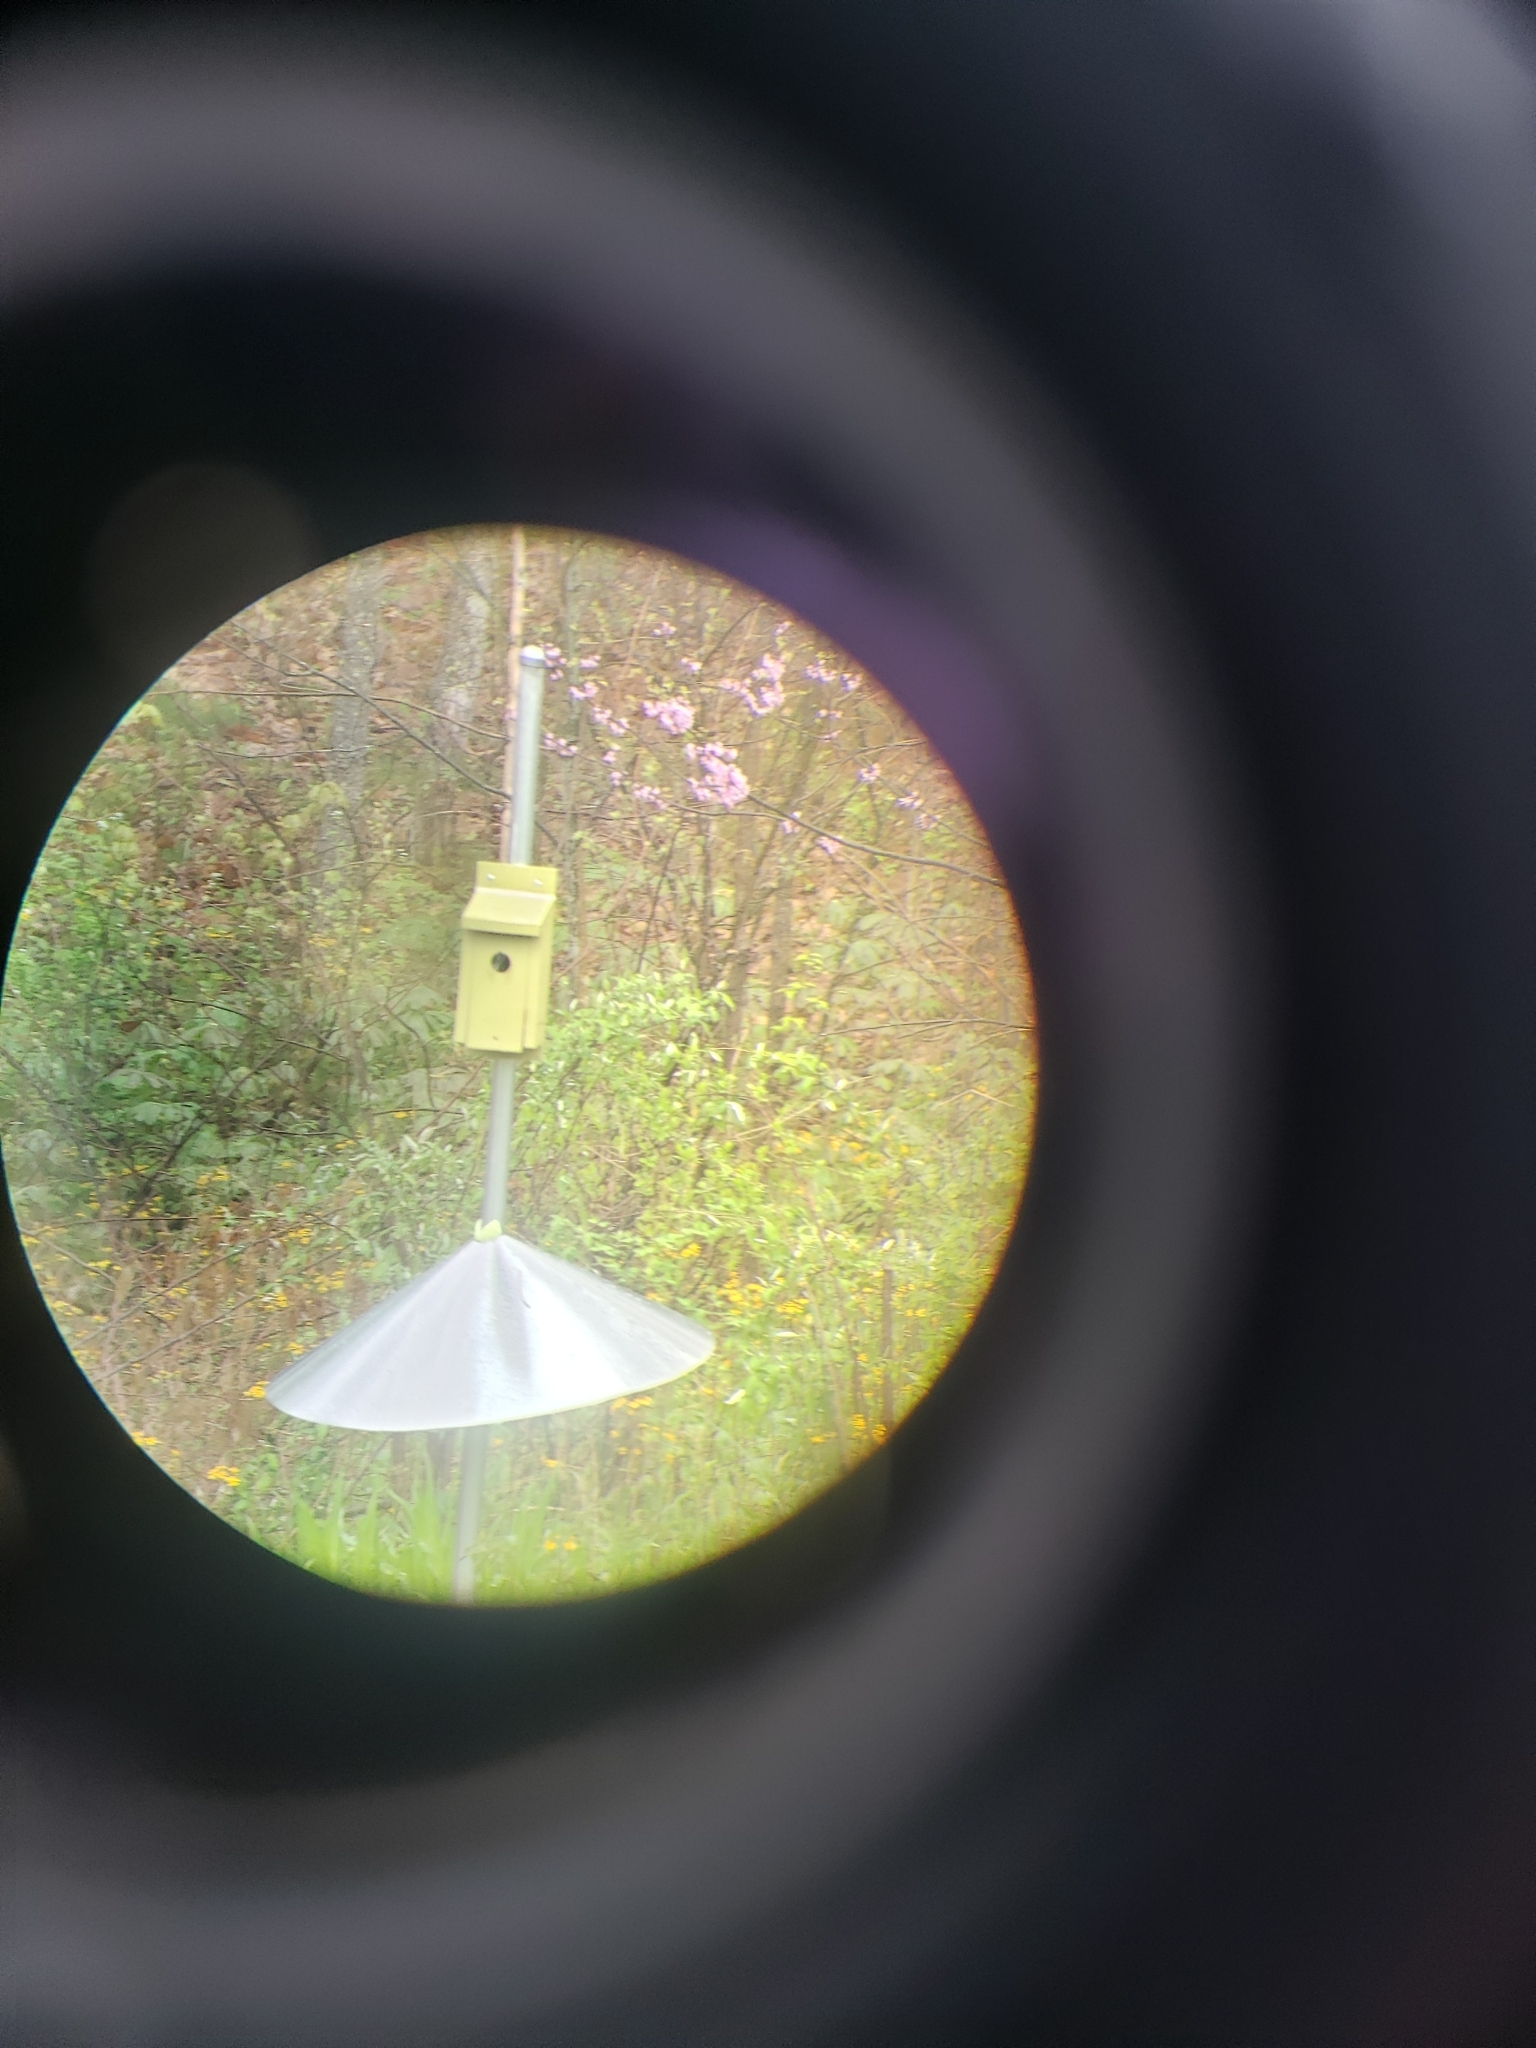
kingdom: Animalia
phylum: Chordata
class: Aves
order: Passeriformes
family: Turdidae
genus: Sialia
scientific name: Sialia sialis
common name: Eastern bluebird
